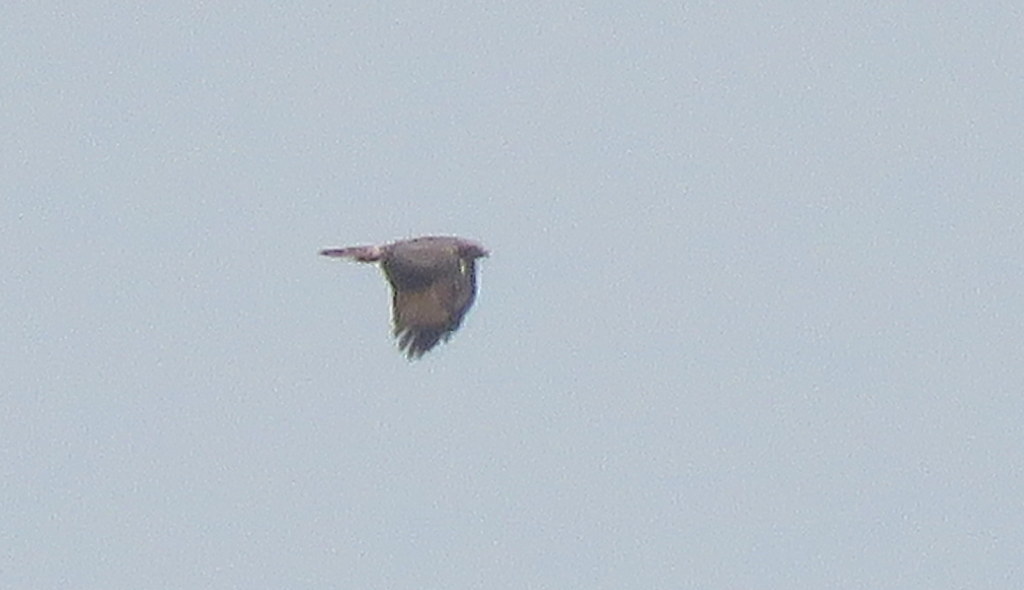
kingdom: Animalia
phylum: Chordata
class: Aves
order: Accipitriformes
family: Accipitridae
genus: Rupornis
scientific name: Rupornis magnirostris
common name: Roadside hawk
